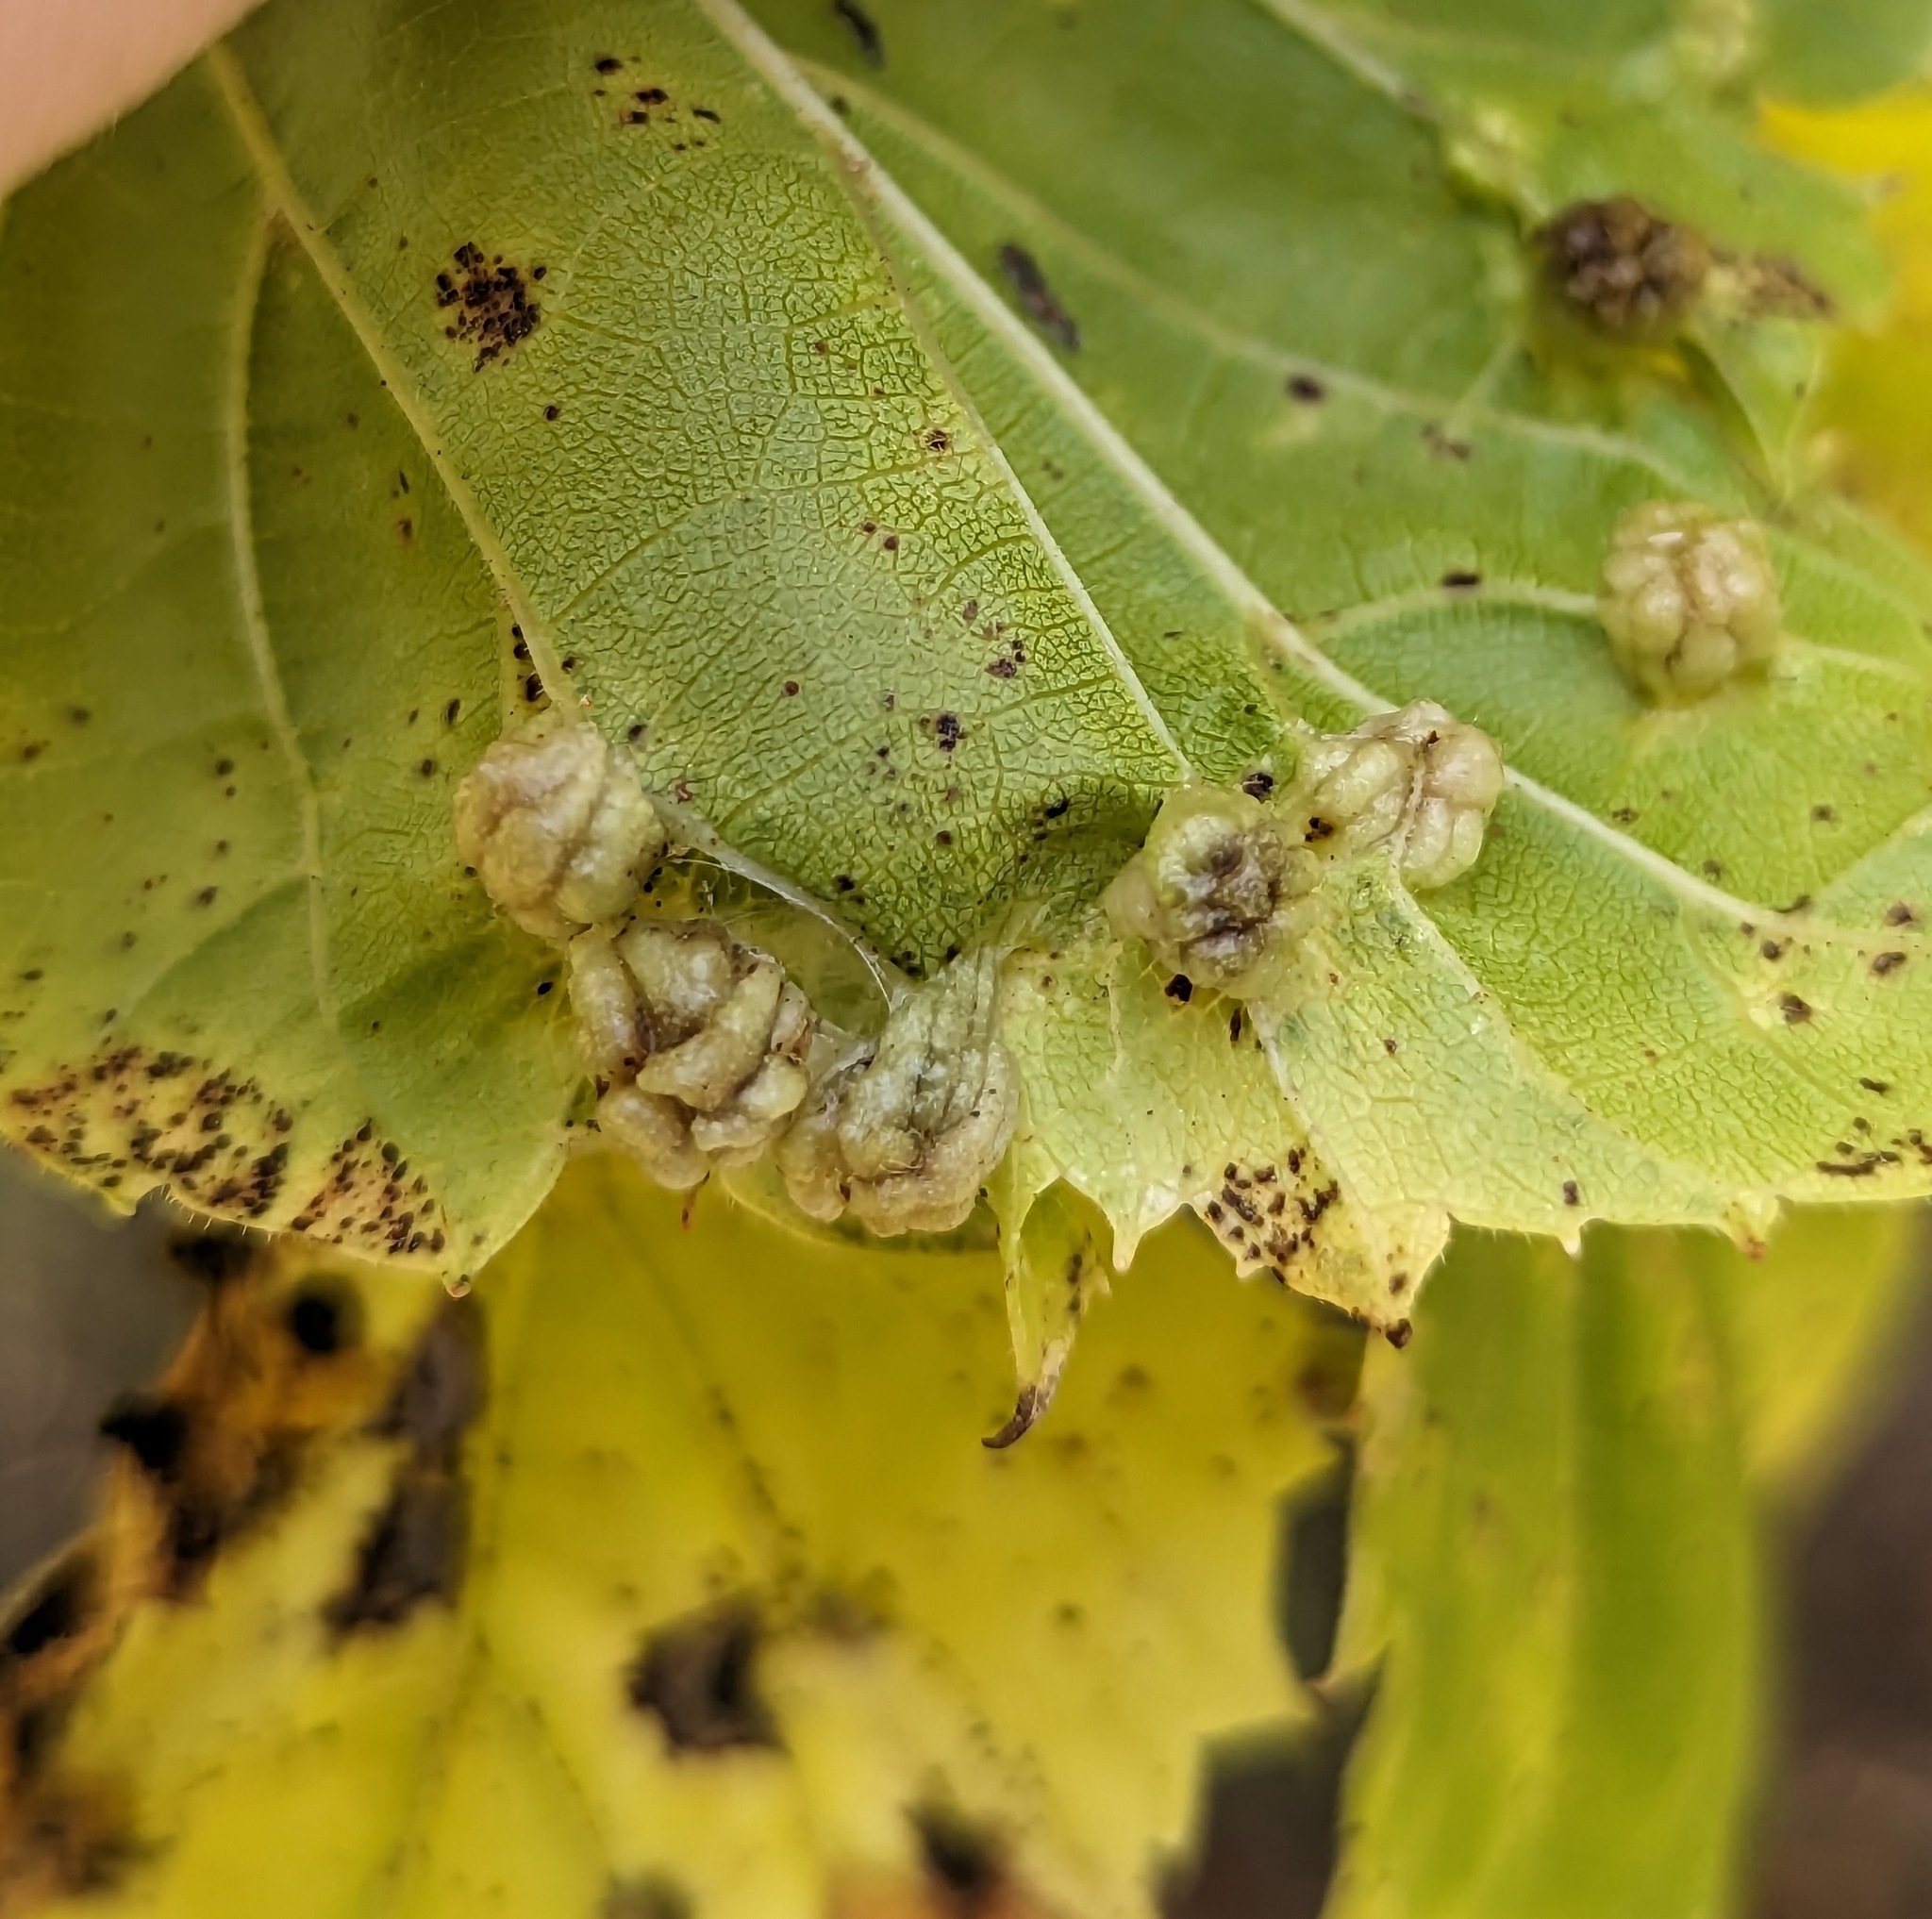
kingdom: Animalia
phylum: Arthropoda
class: Insecta
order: Hemiptera
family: Phylloxeridae
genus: Daktulosphaira
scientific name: Daktulosphaira vitifoliae
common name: Grape phylloxera
